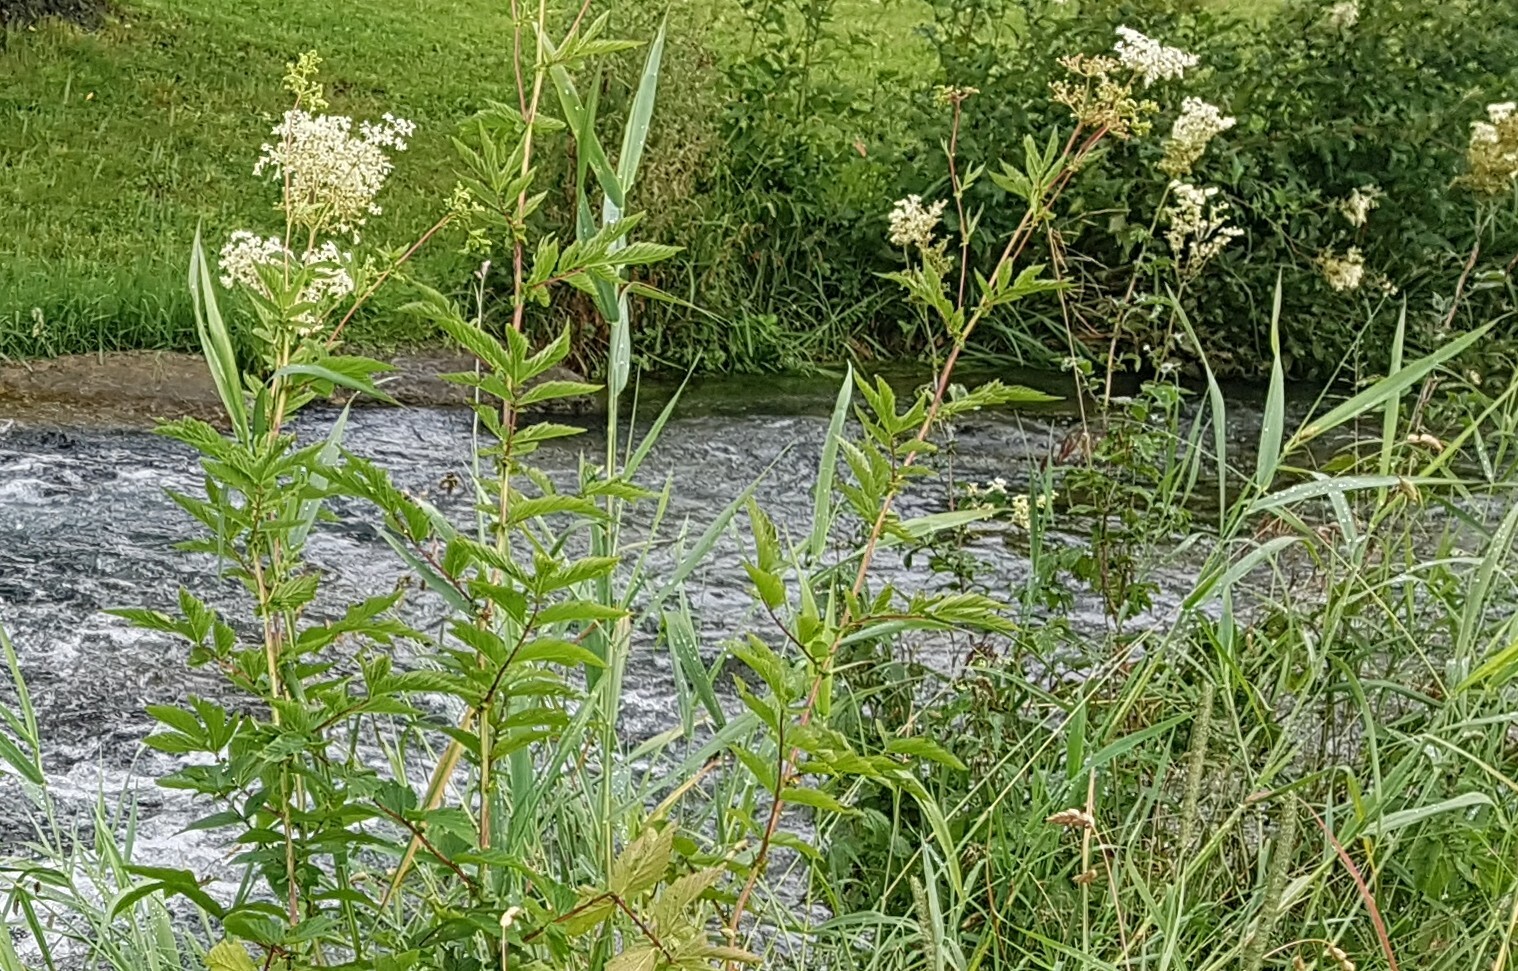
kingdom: Plantae
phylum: Tracheophyta
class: Magnoliopsida
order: Rosales
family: Rosaceae
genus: Filipendula
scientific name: Filipendula ulmaria
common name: Meadowsweet
